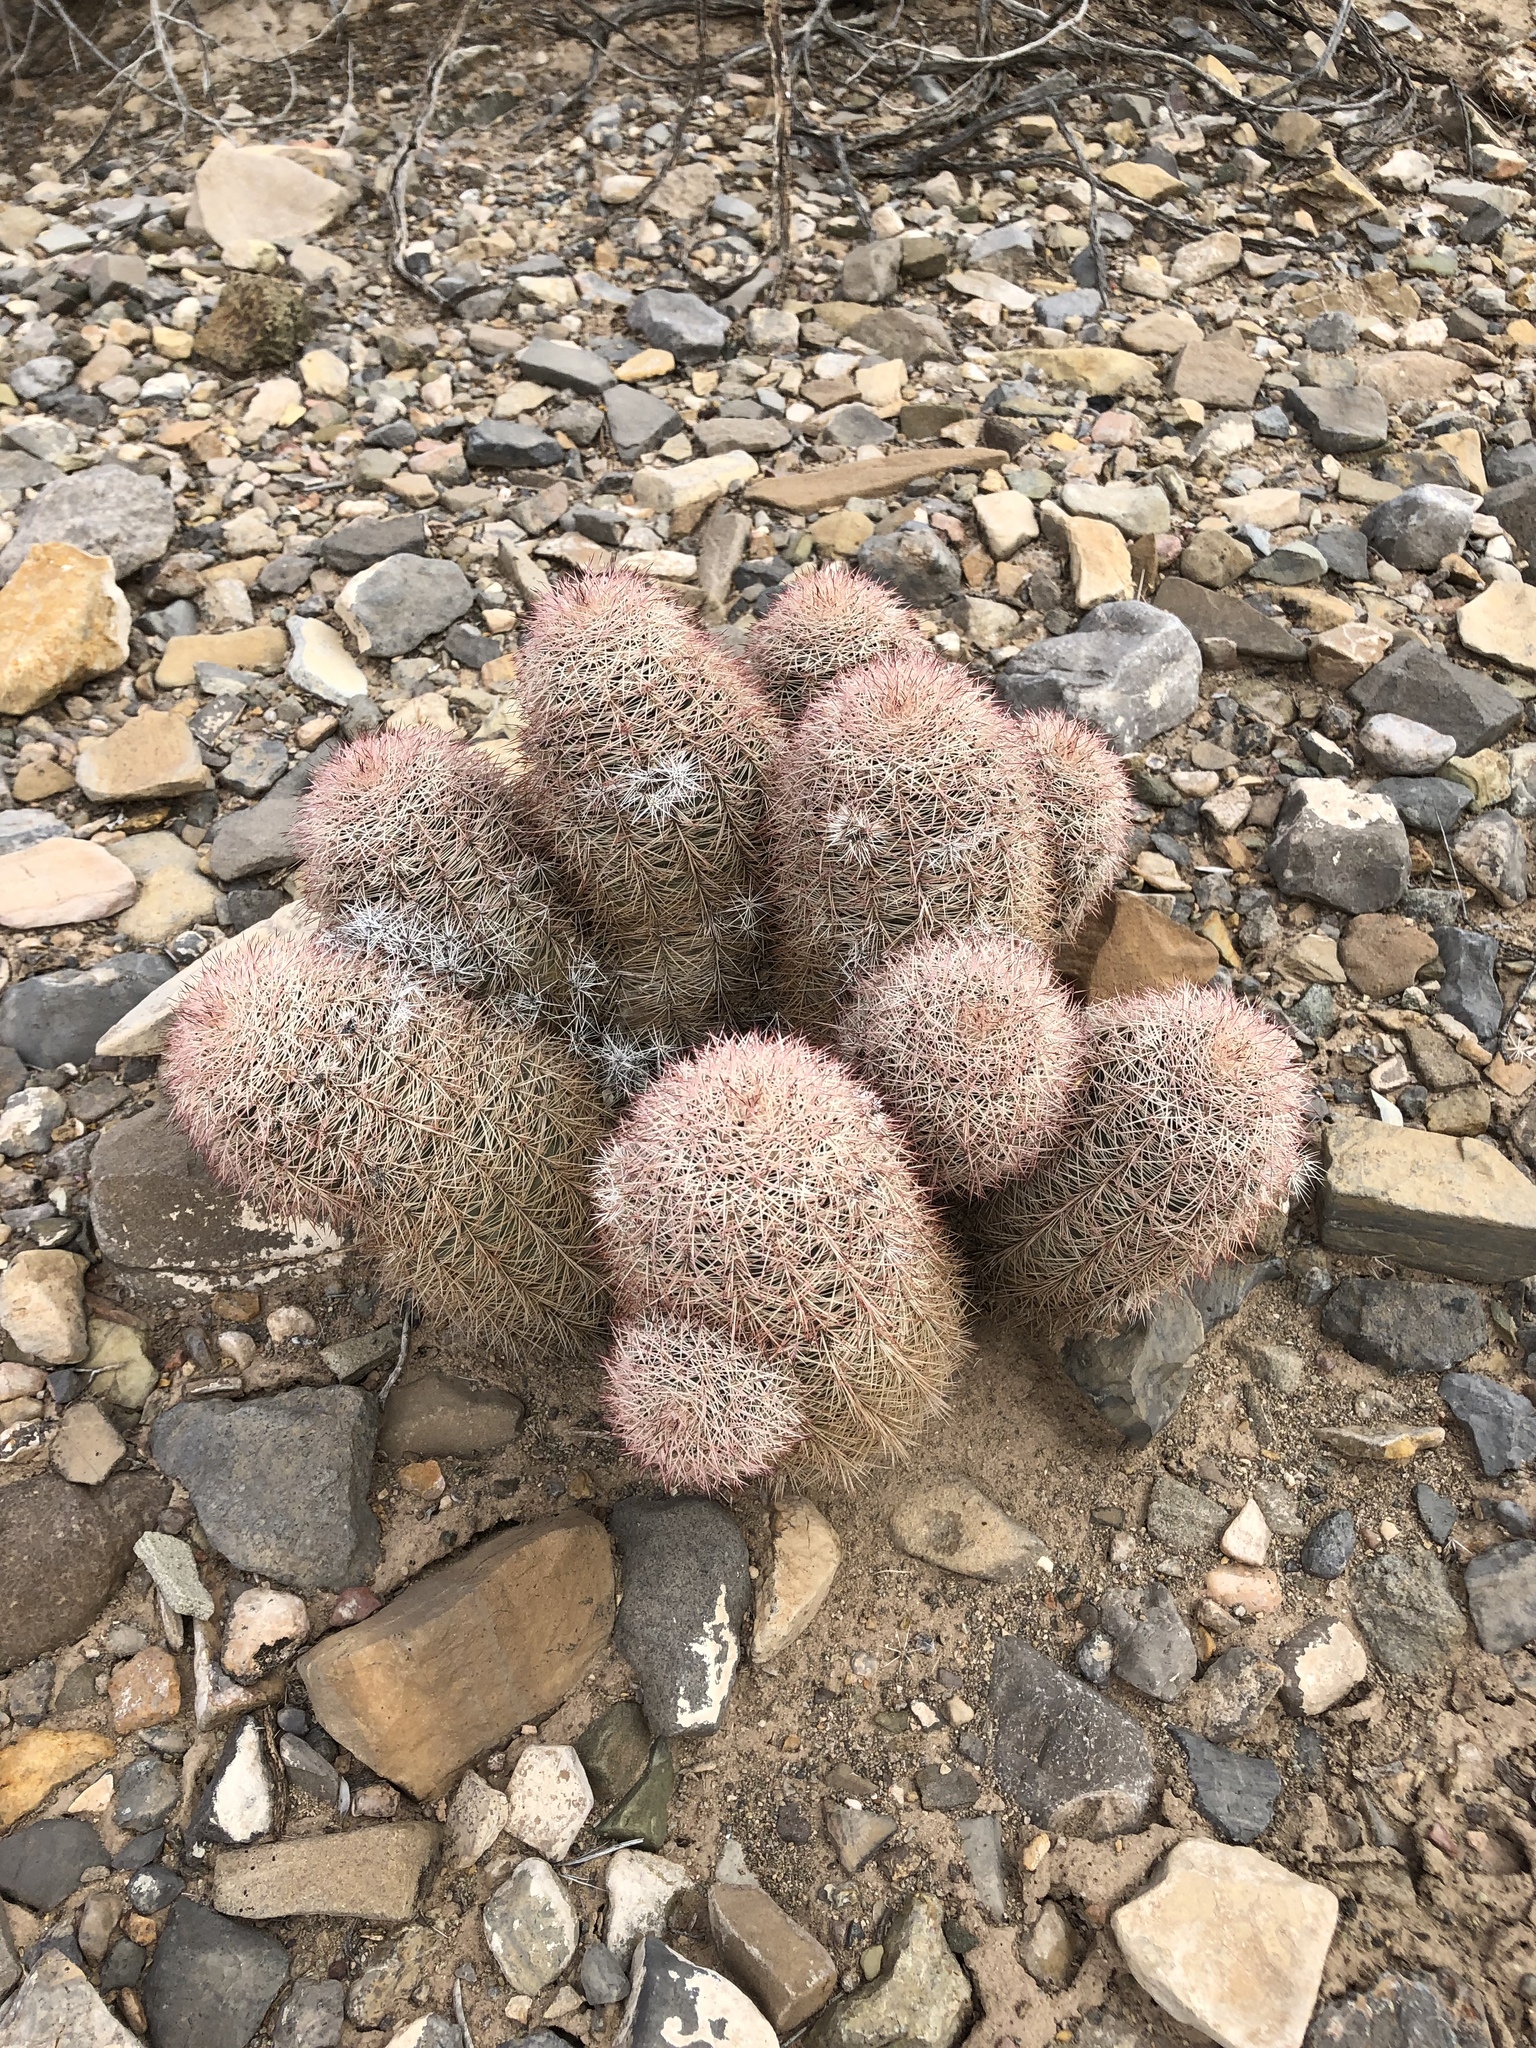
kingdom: Plantae
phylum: Tracheophyta
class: Magnoliopsida
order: Caryophyllales
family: Cactaceae
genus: Echinocereus
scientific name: Echinocereus dasyacanthus
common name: Spiny hedgehog cactus
